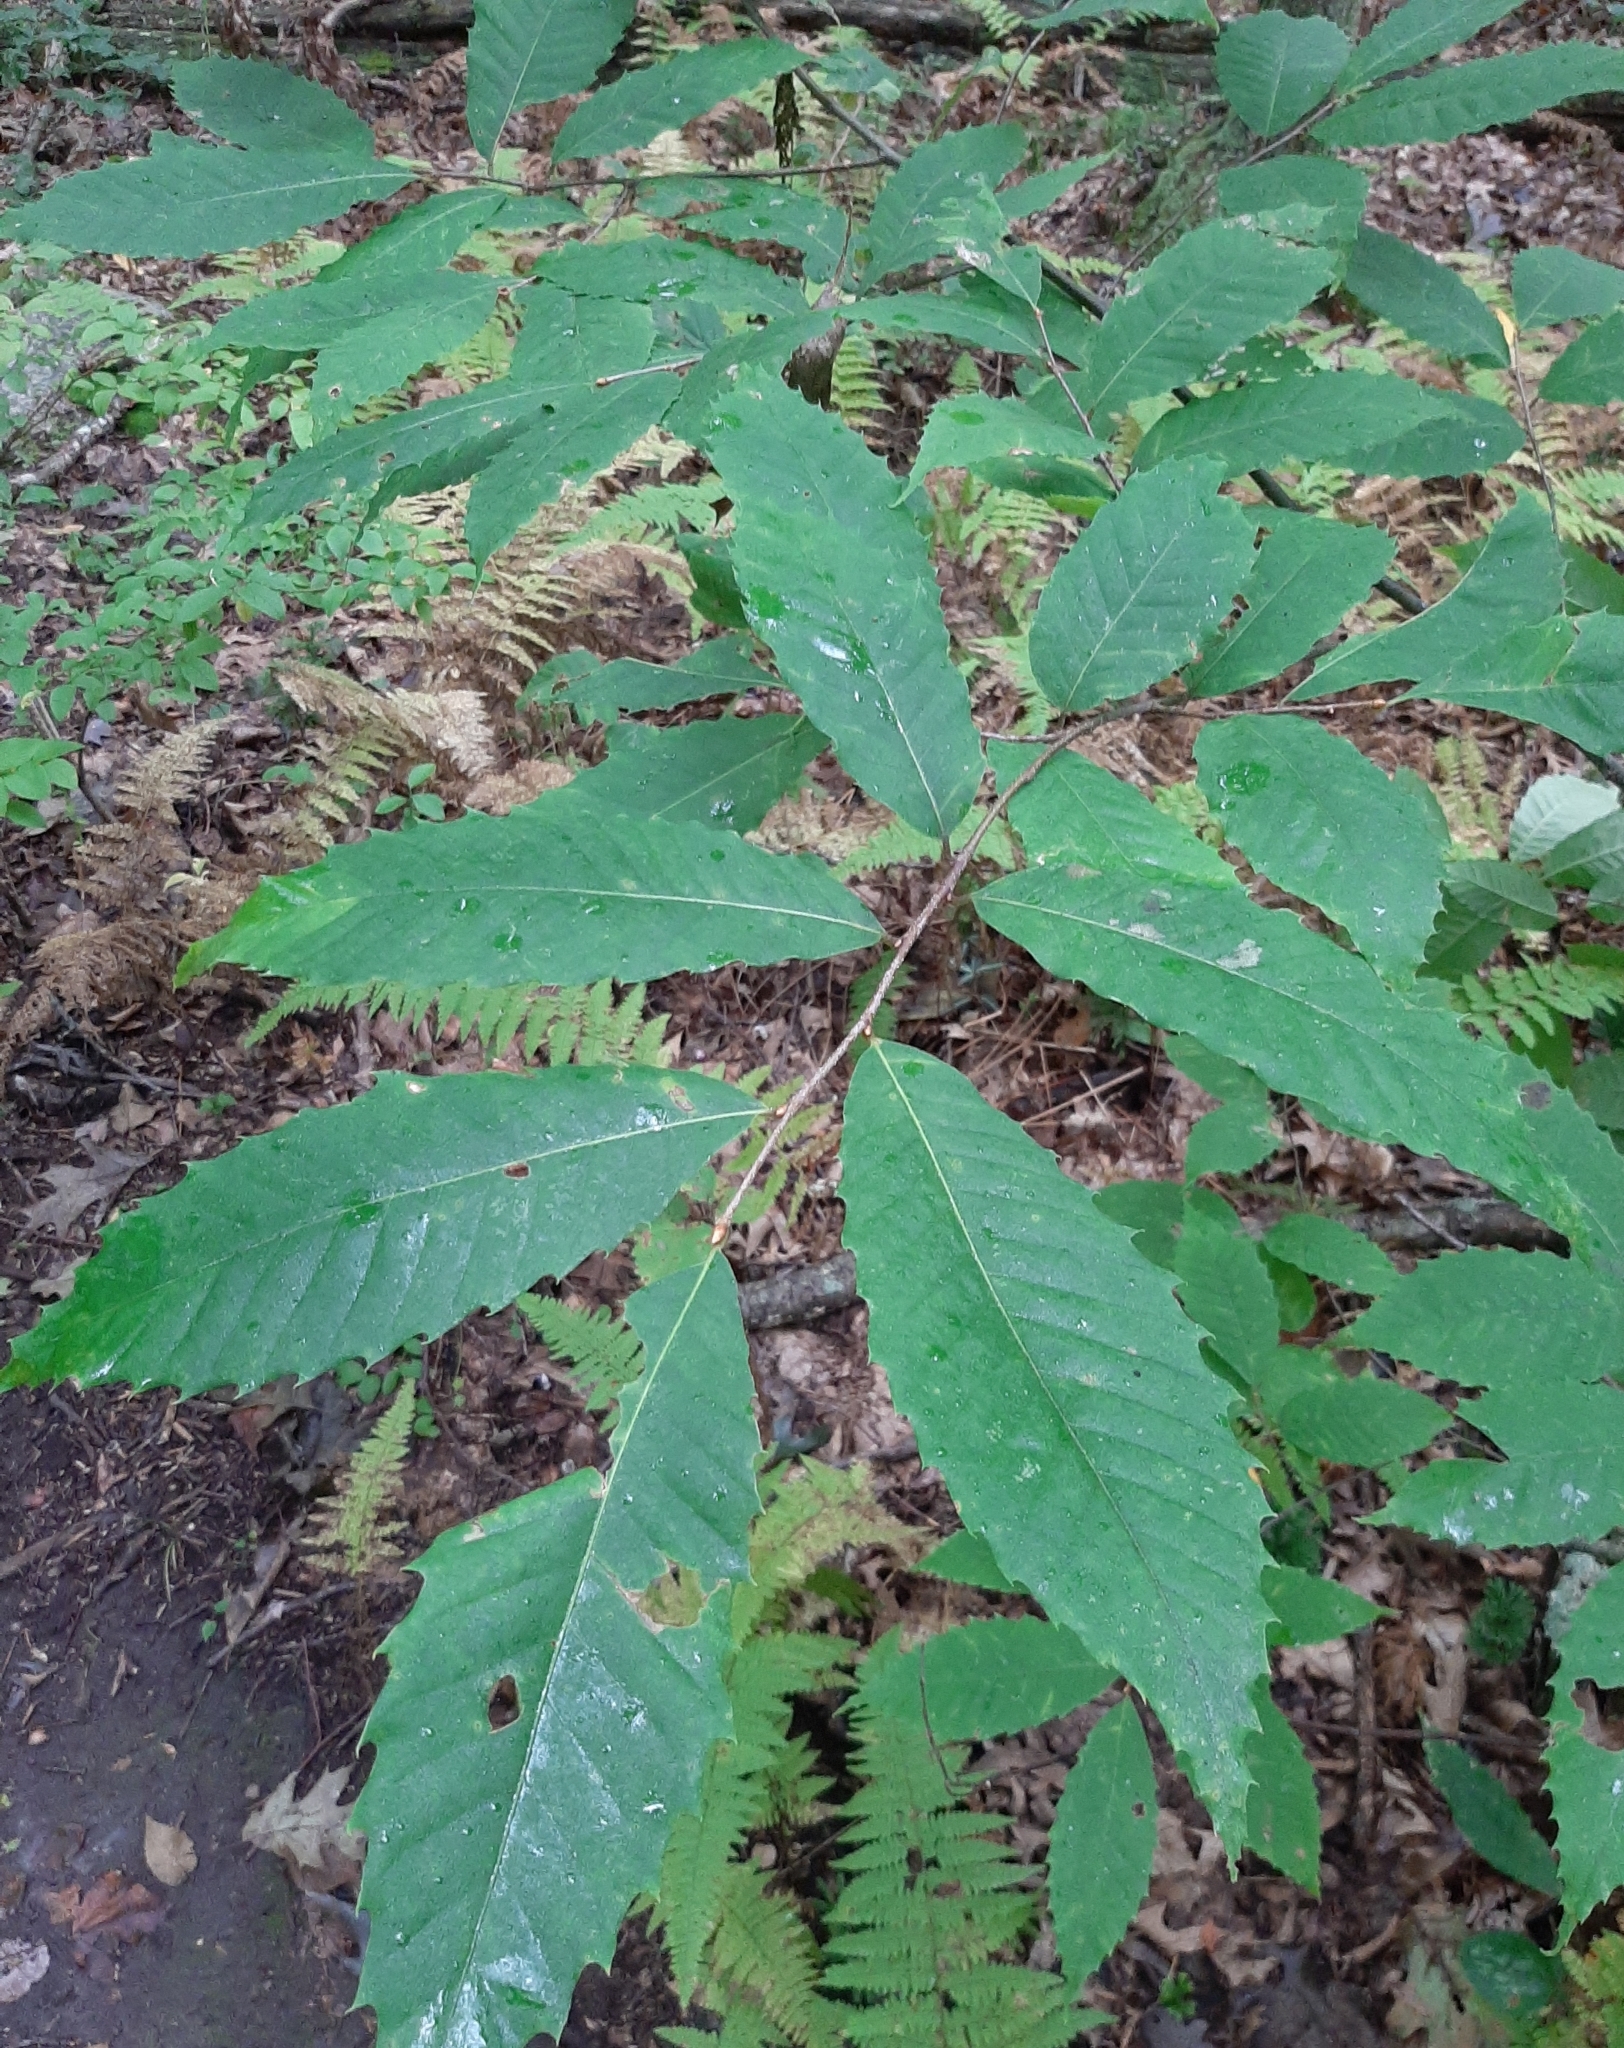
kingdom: Plantae
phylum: Tracheophyta
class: Magnoliopsida
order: Fagales
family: Fagaceae
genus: Castanea
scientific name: Castanea dentata
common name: American chestnut
